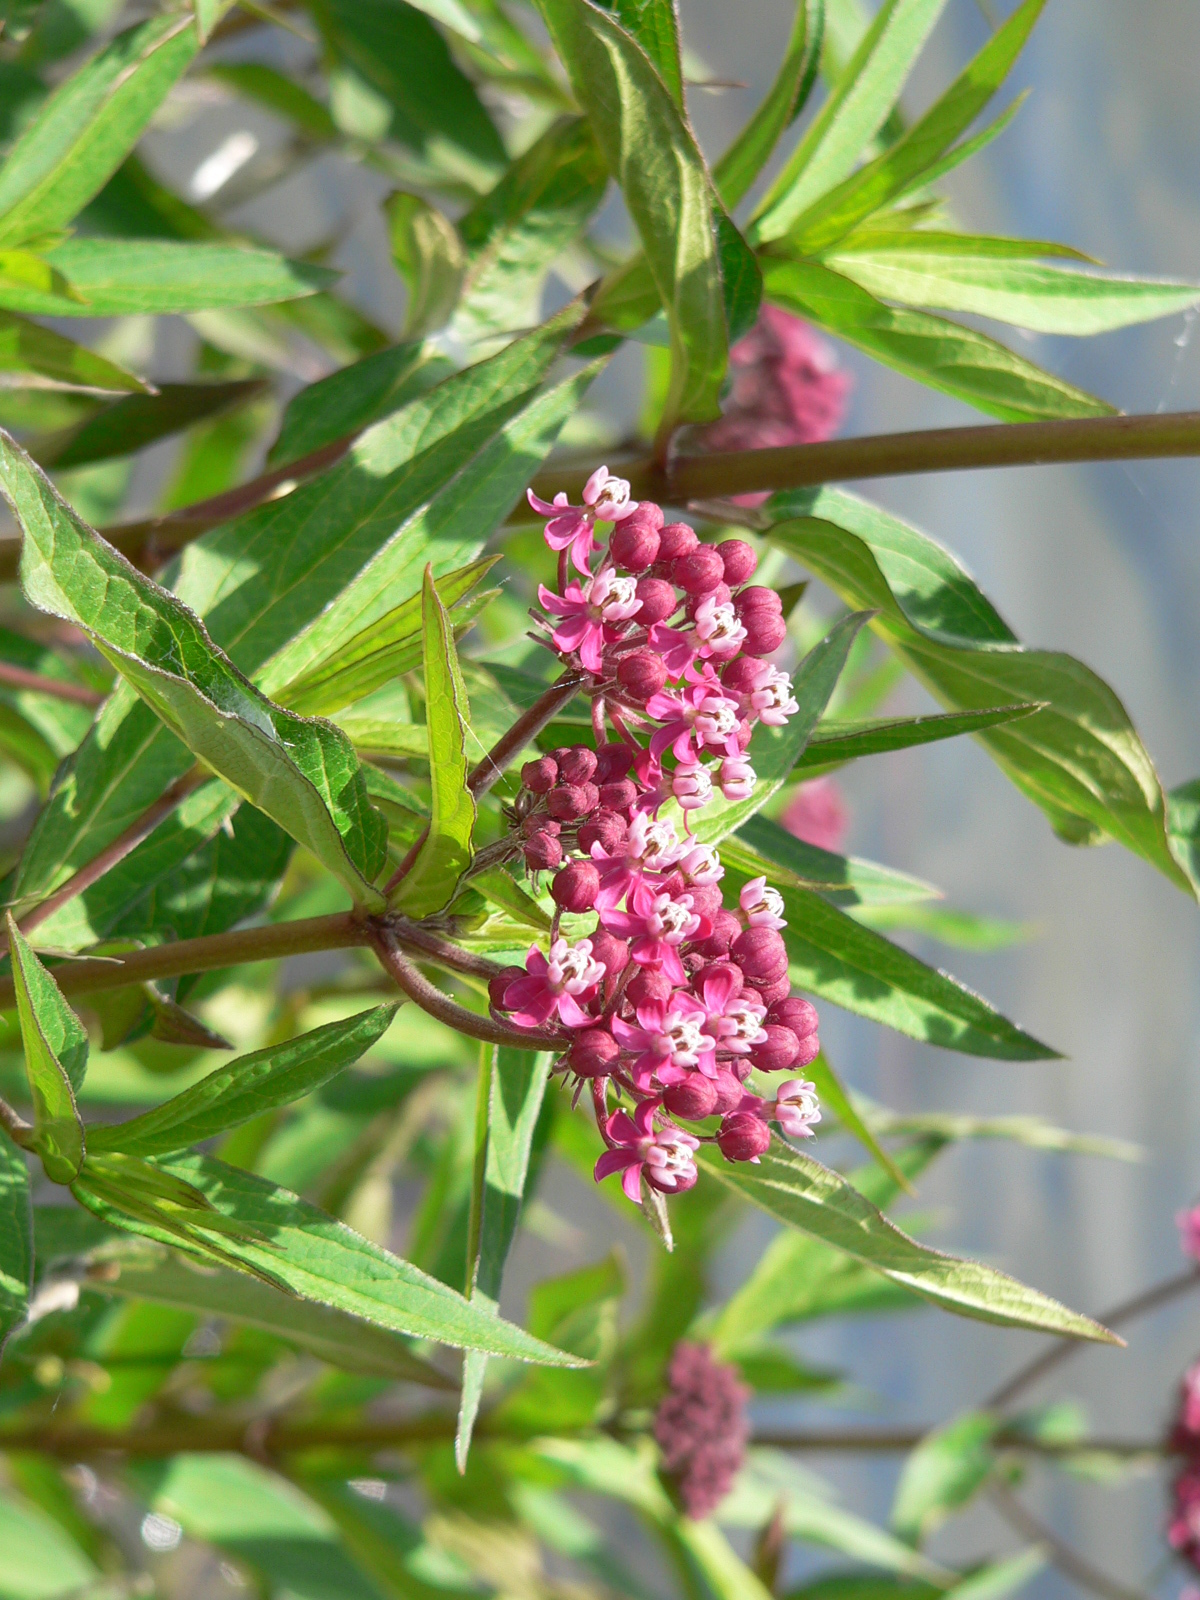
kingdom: Plantae
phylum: Tracheophyta
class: Magnoliopsida
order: Gentianales
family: Apocynaceae
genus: Asclepias
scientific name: Asclepias incarnata
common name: Swamp milkweed
